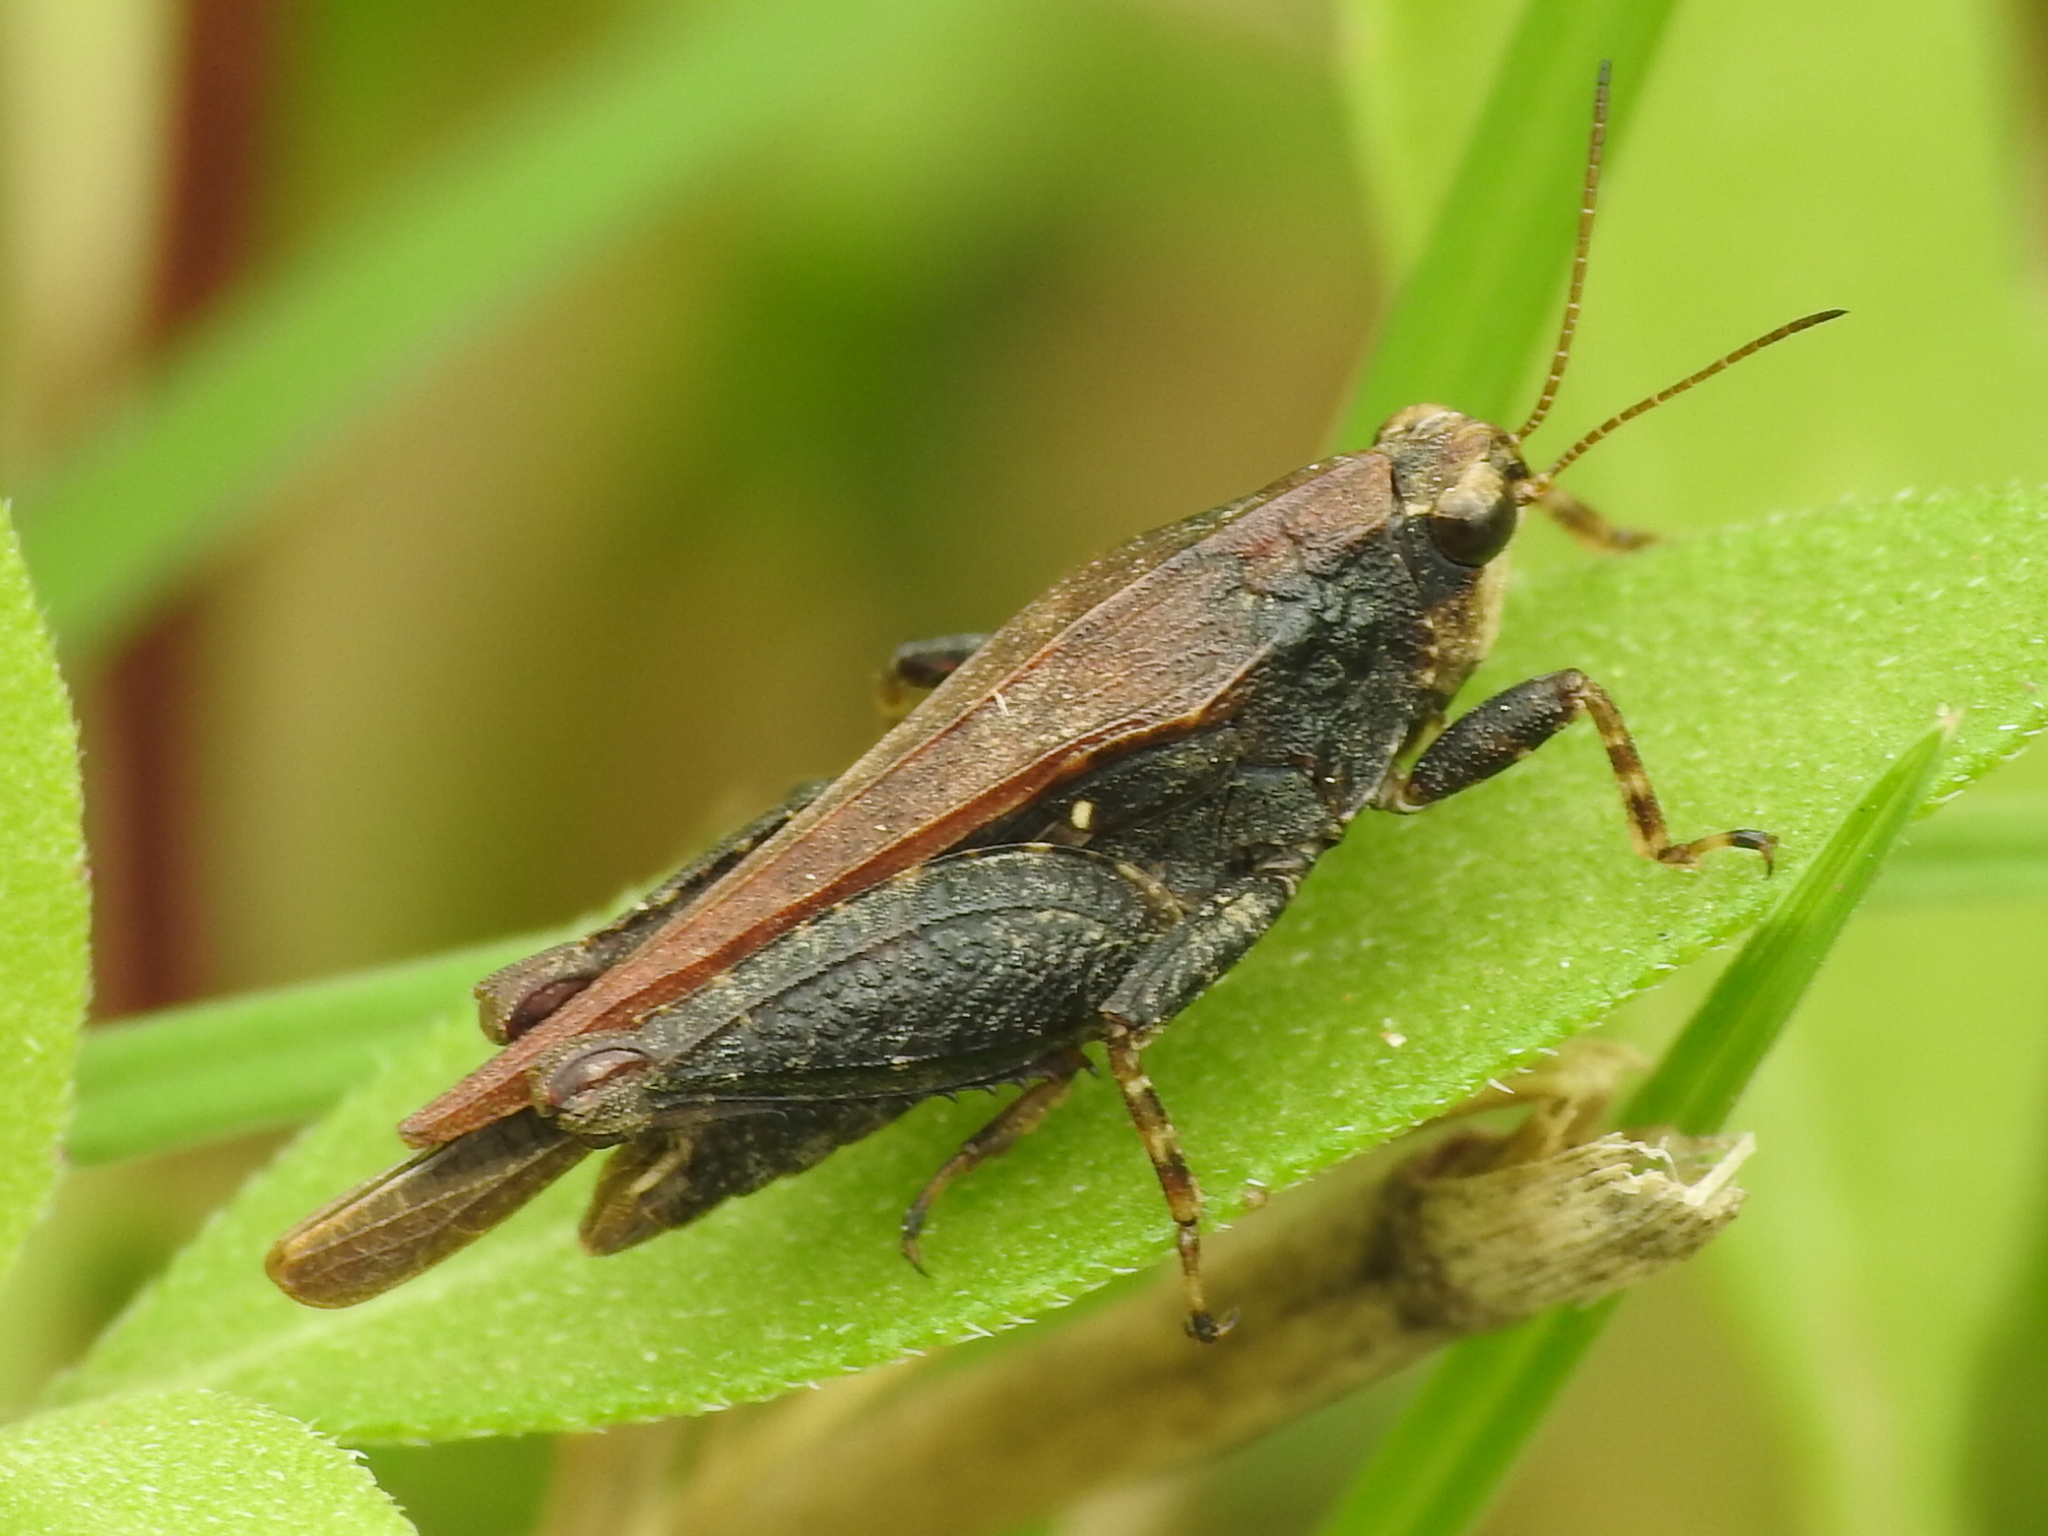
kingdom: Animalia
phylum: Arthropoda
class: Insecta
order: Orthoptera
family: Tetrigidae
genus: Tettigidea
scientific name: Tettigidea laterale
